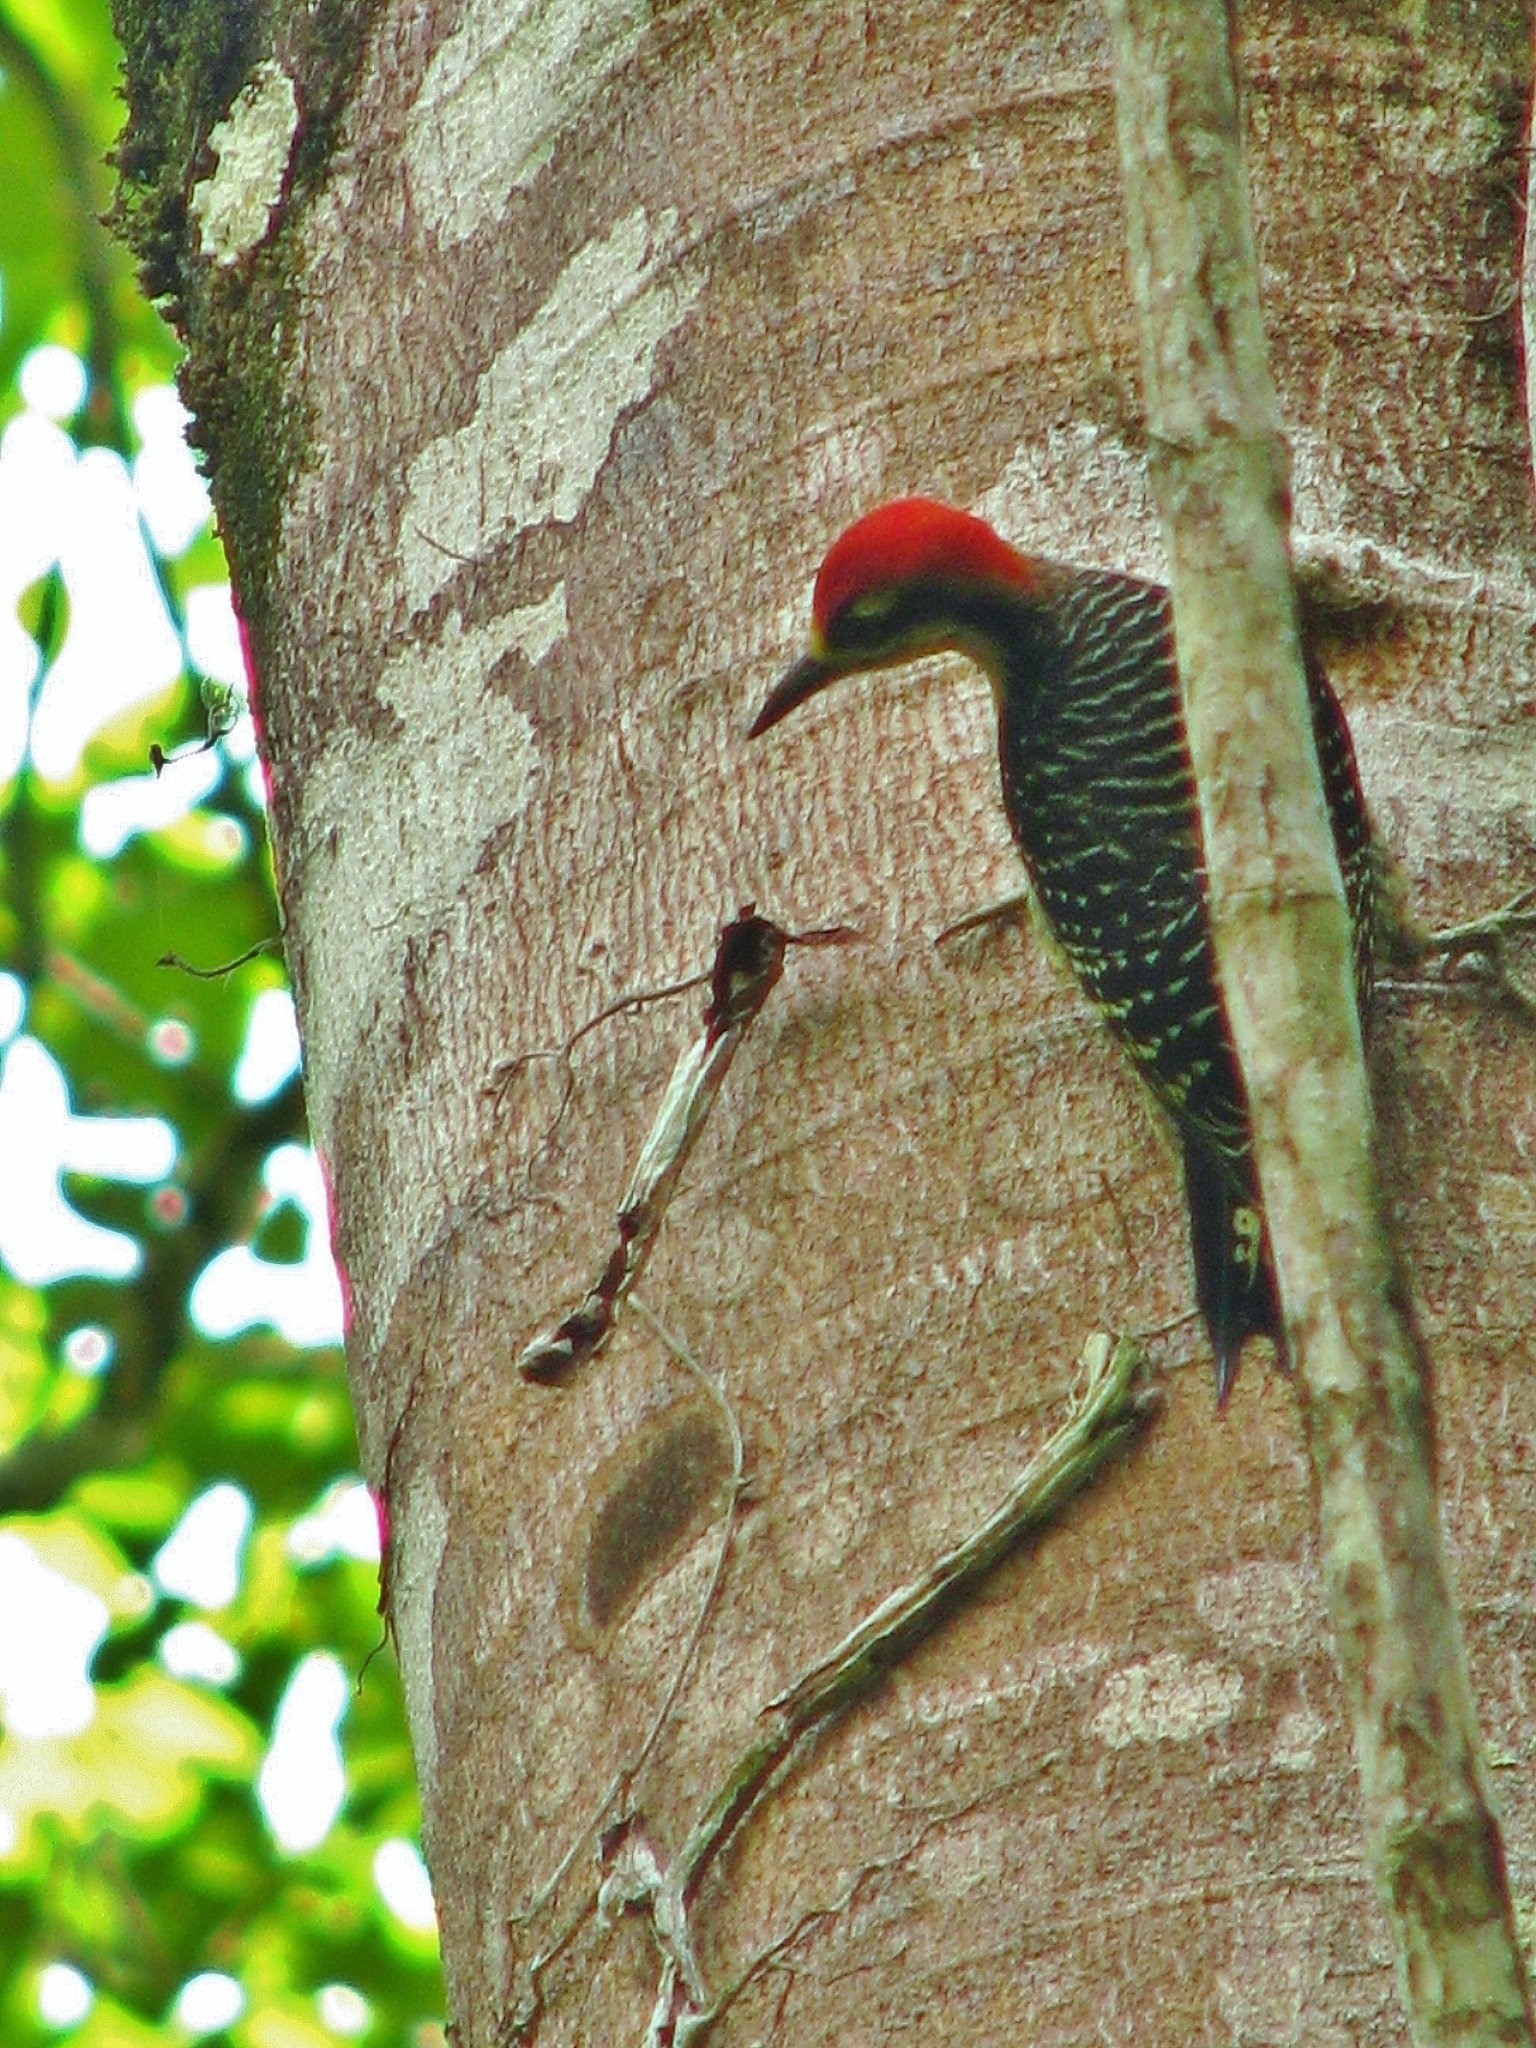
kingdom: Animalia
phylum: Chordata
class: Aves
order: Piciformes
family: Picidae
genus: Melanerpes
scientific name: Melanerpes pucherani
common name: Black-cheeked woodpecker
